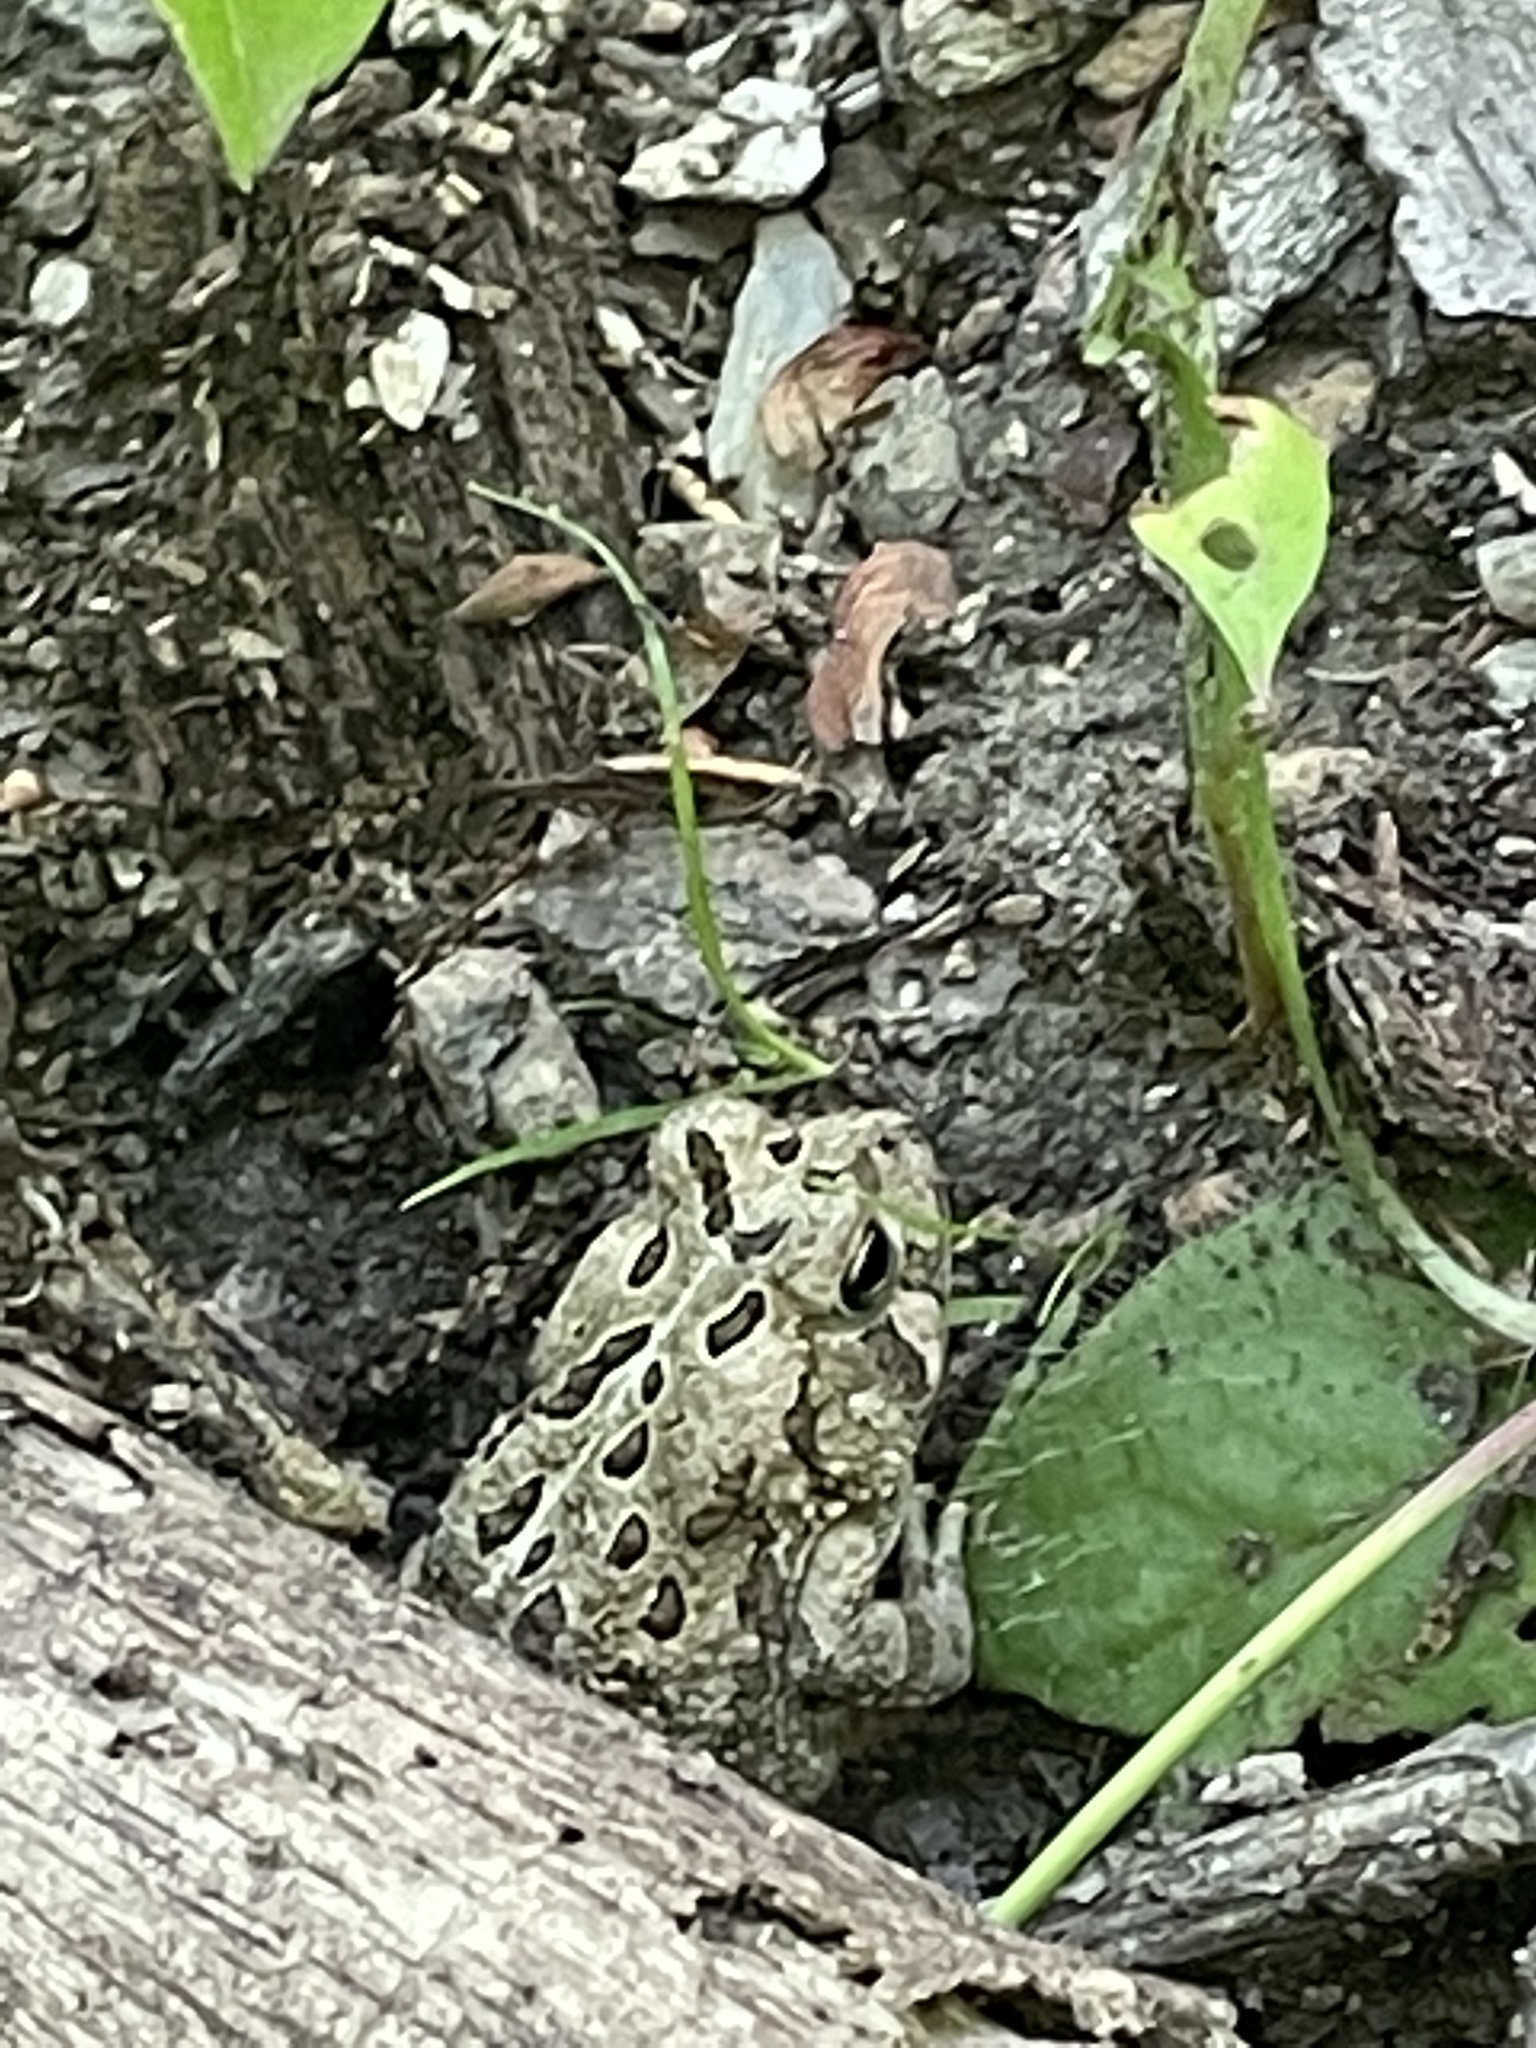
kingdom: Animalia
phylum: Chordata
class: Amphibia
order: Anura
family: Bufonidae
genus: Anaxyrus
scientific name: Anaxyrus fowleri
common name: Fowler's toad
